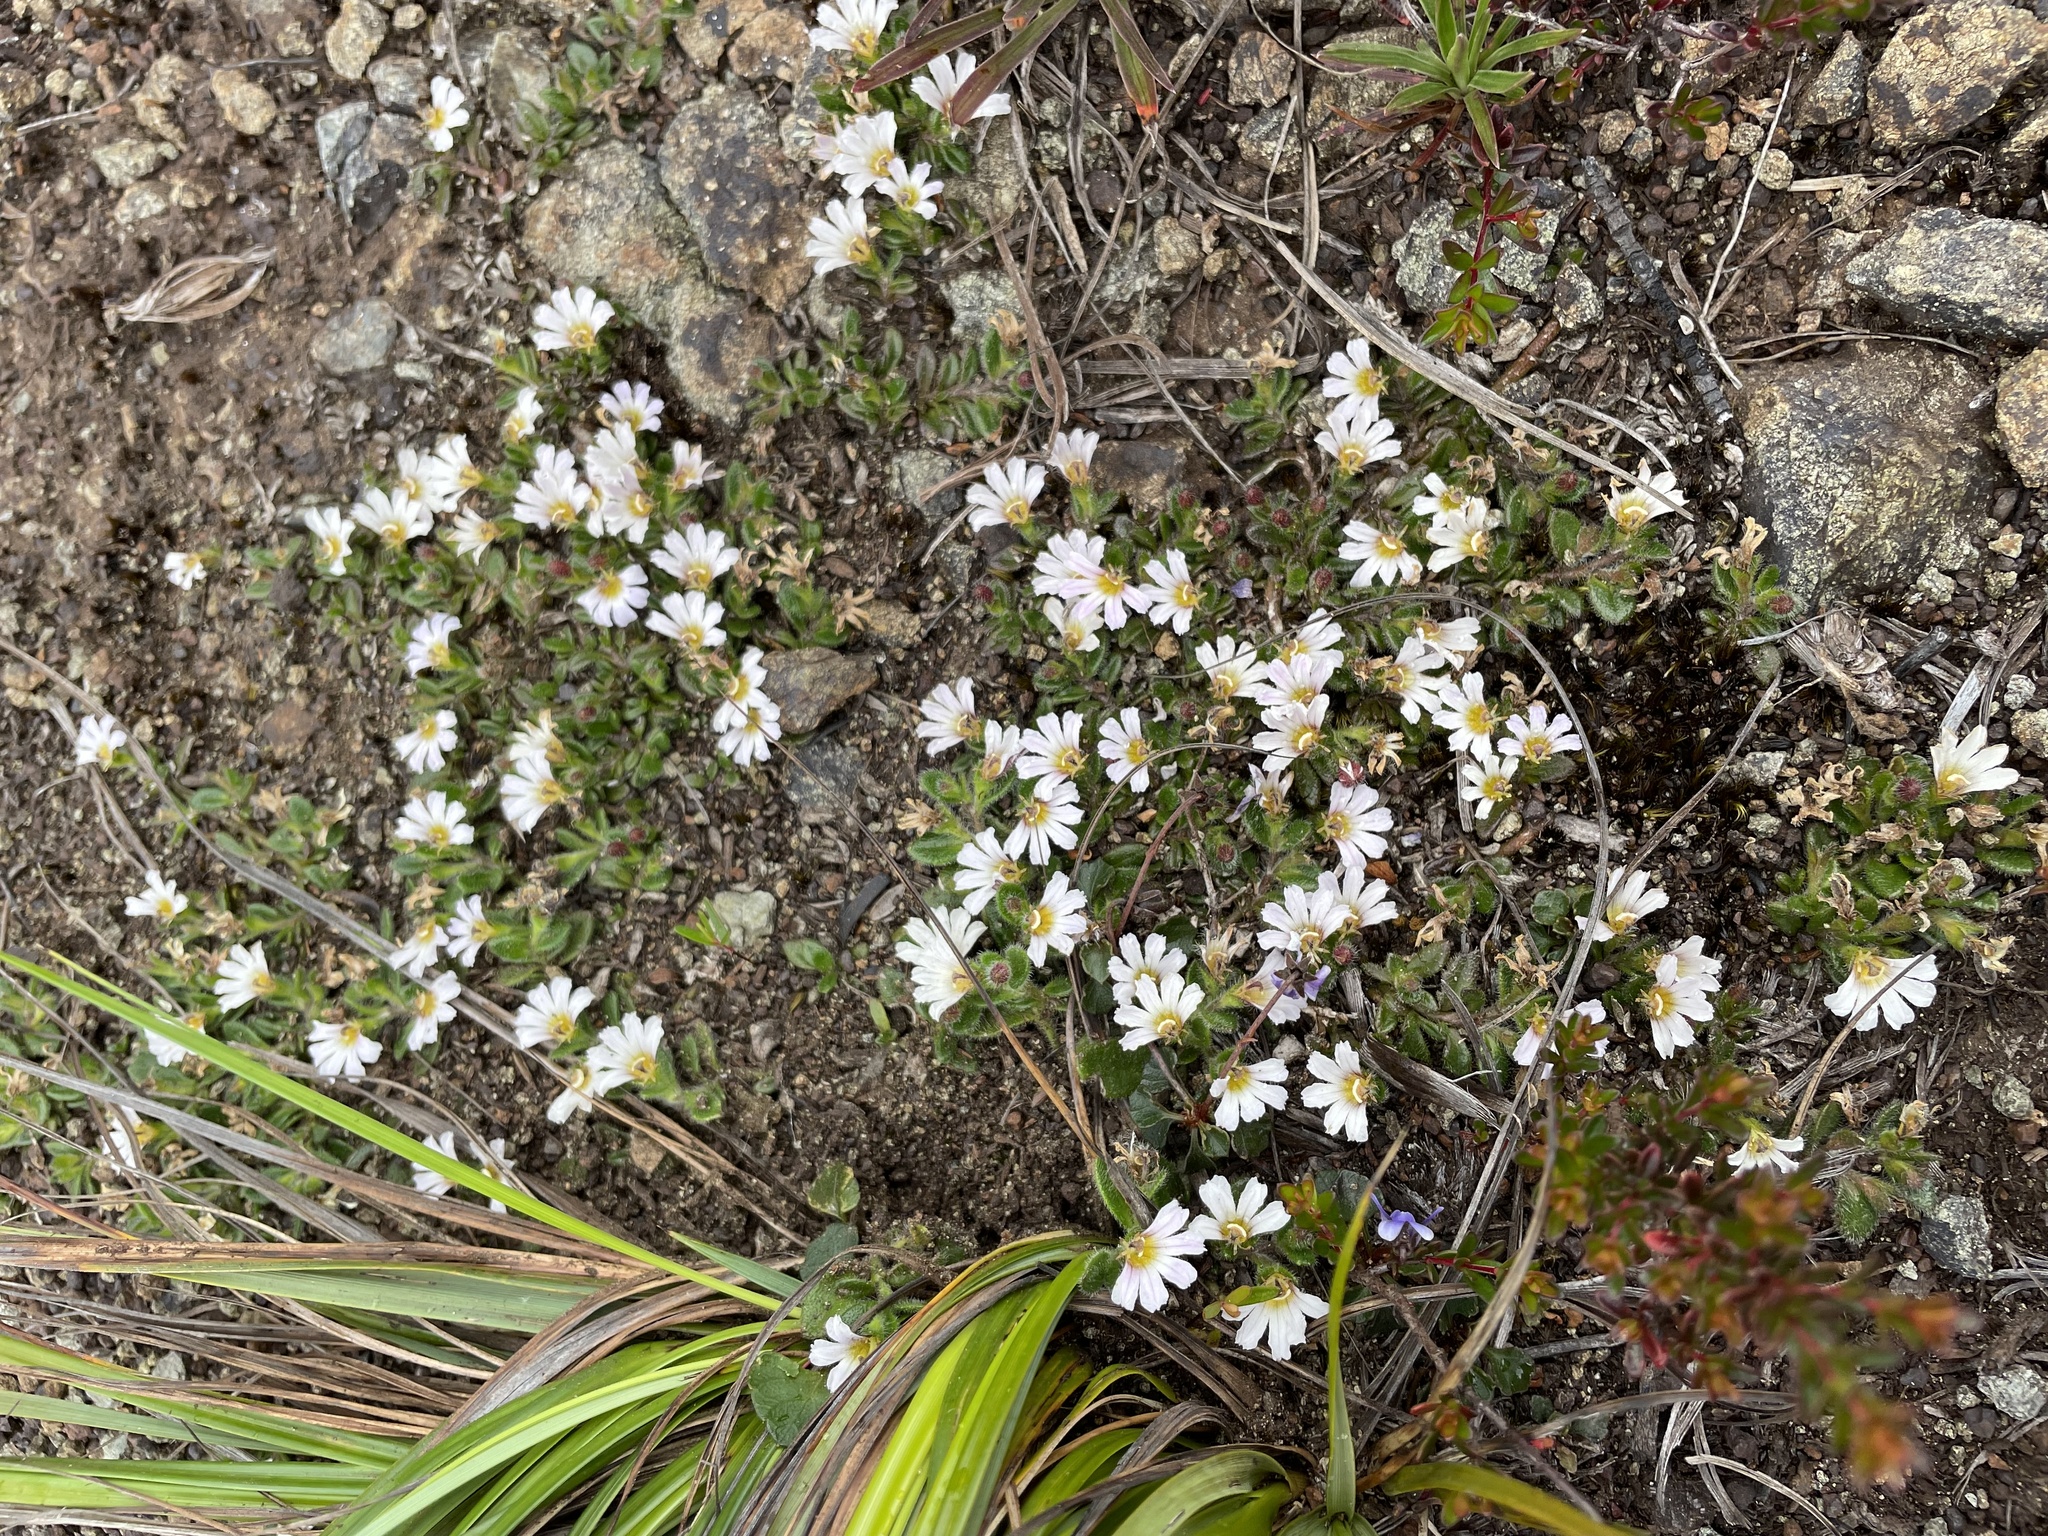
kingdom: Plantae
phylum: Tracheophyta
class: Magnoliopsida
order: Asterales
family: Goodeniaceae
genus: Scaevola
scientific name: Scaevola hookeri
